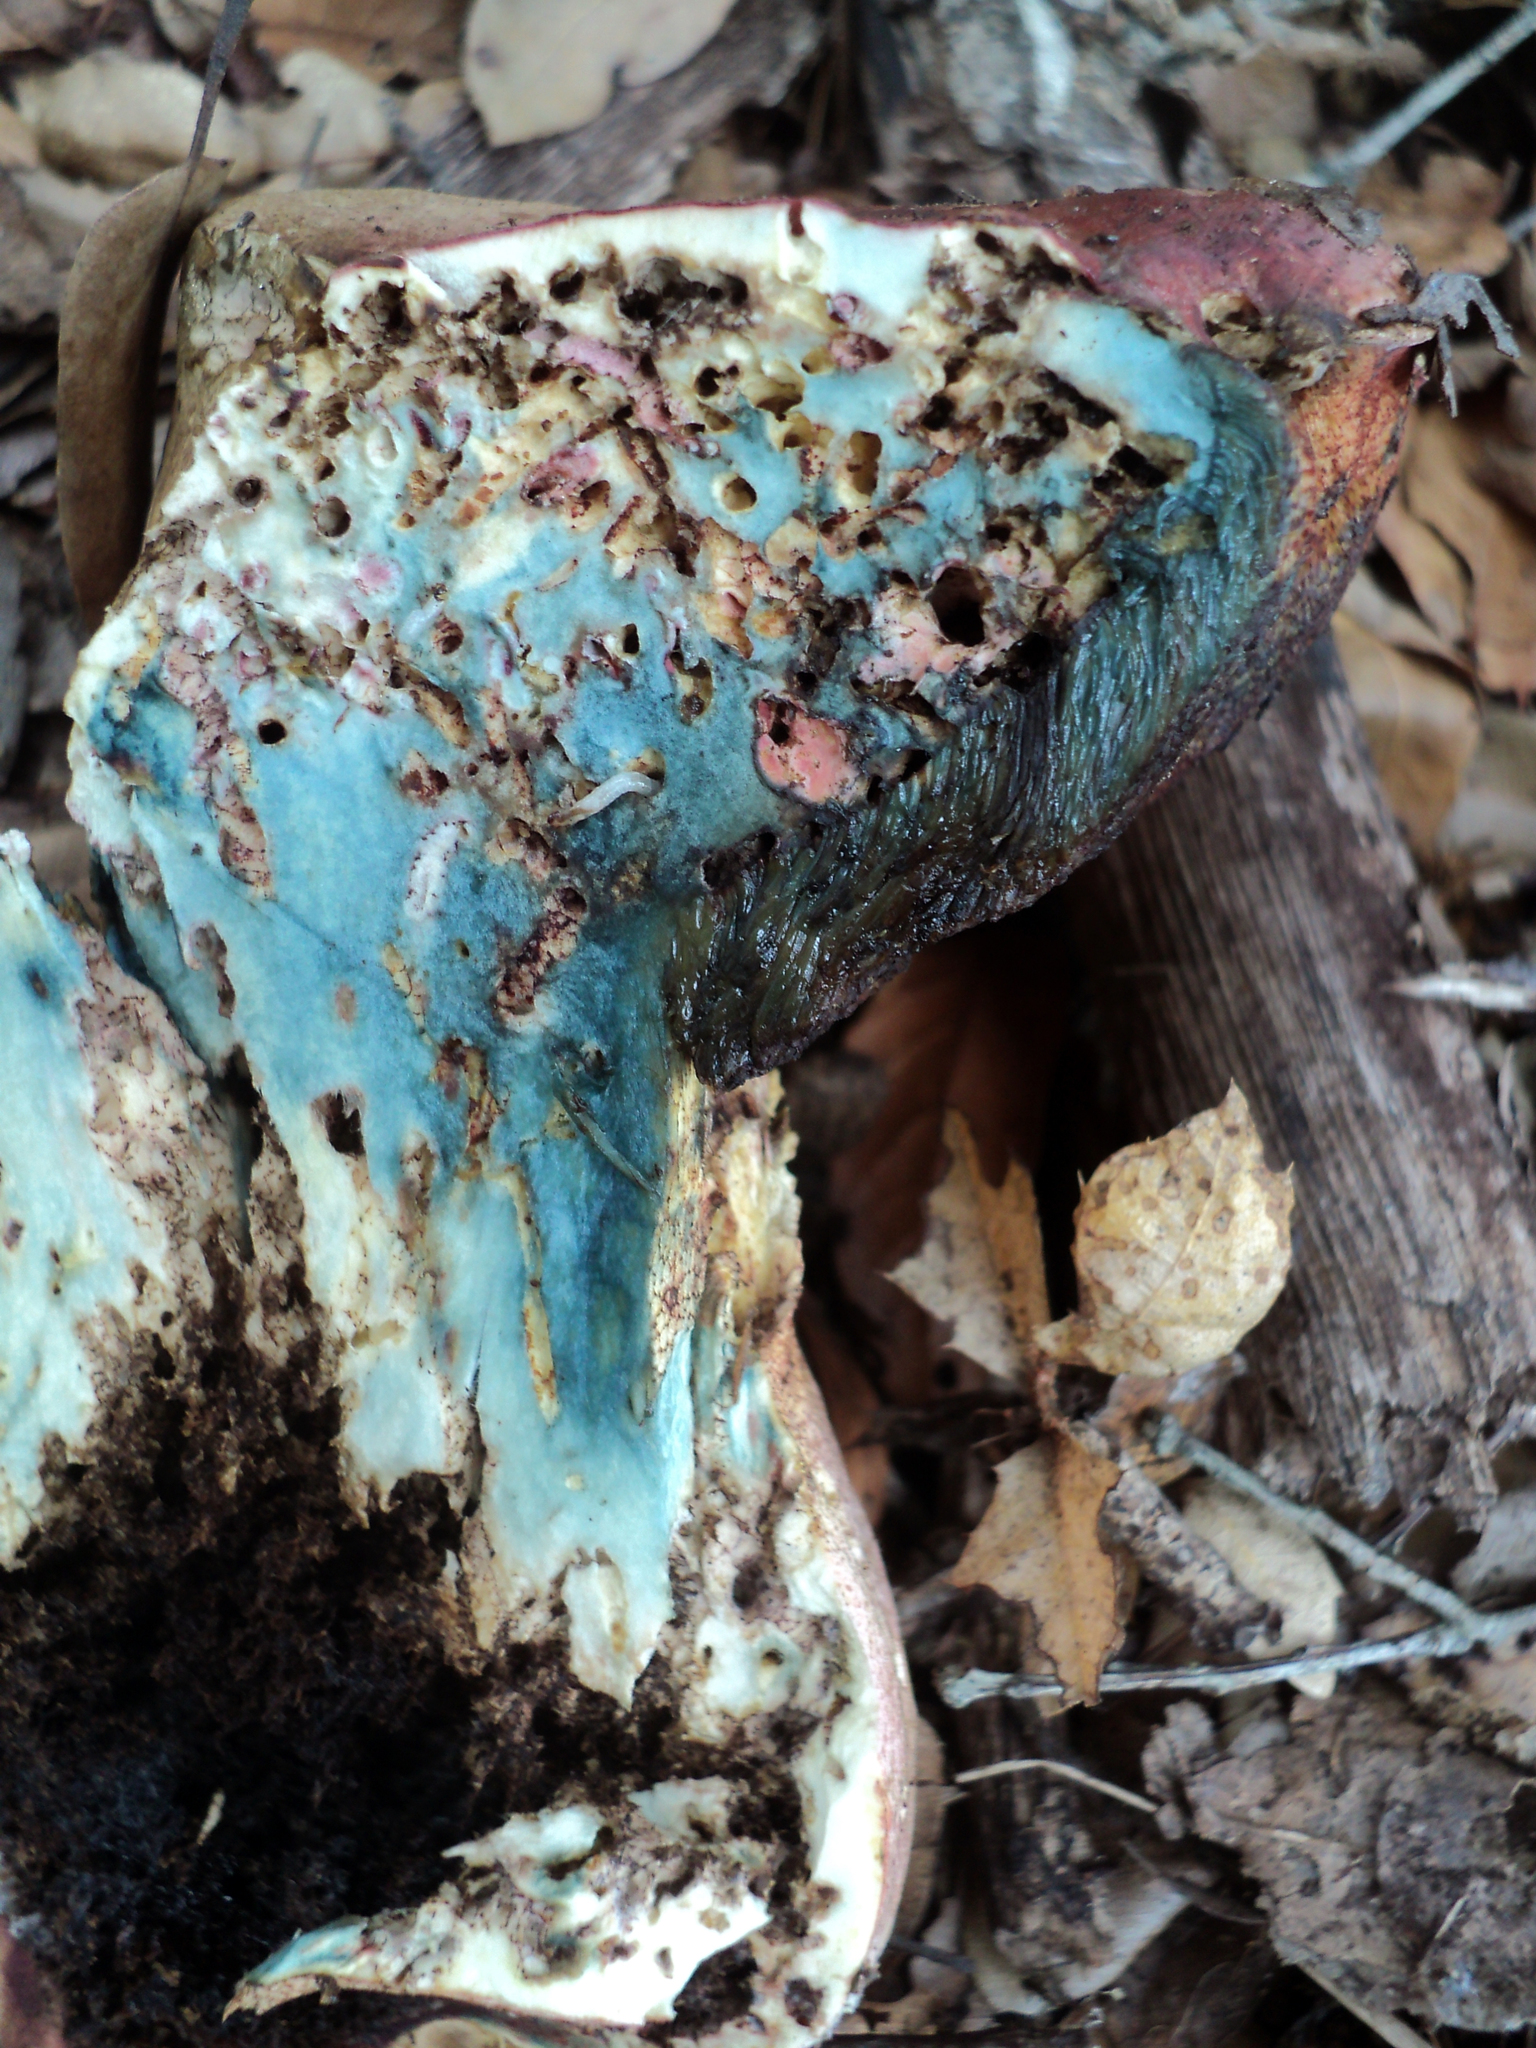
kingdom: Fungi
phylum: Basidiomycota
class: Agaricomycetes
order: Boletales
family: Boletaceae
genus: Rubroboletus
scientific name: Rubroboletus eastwoodiae
